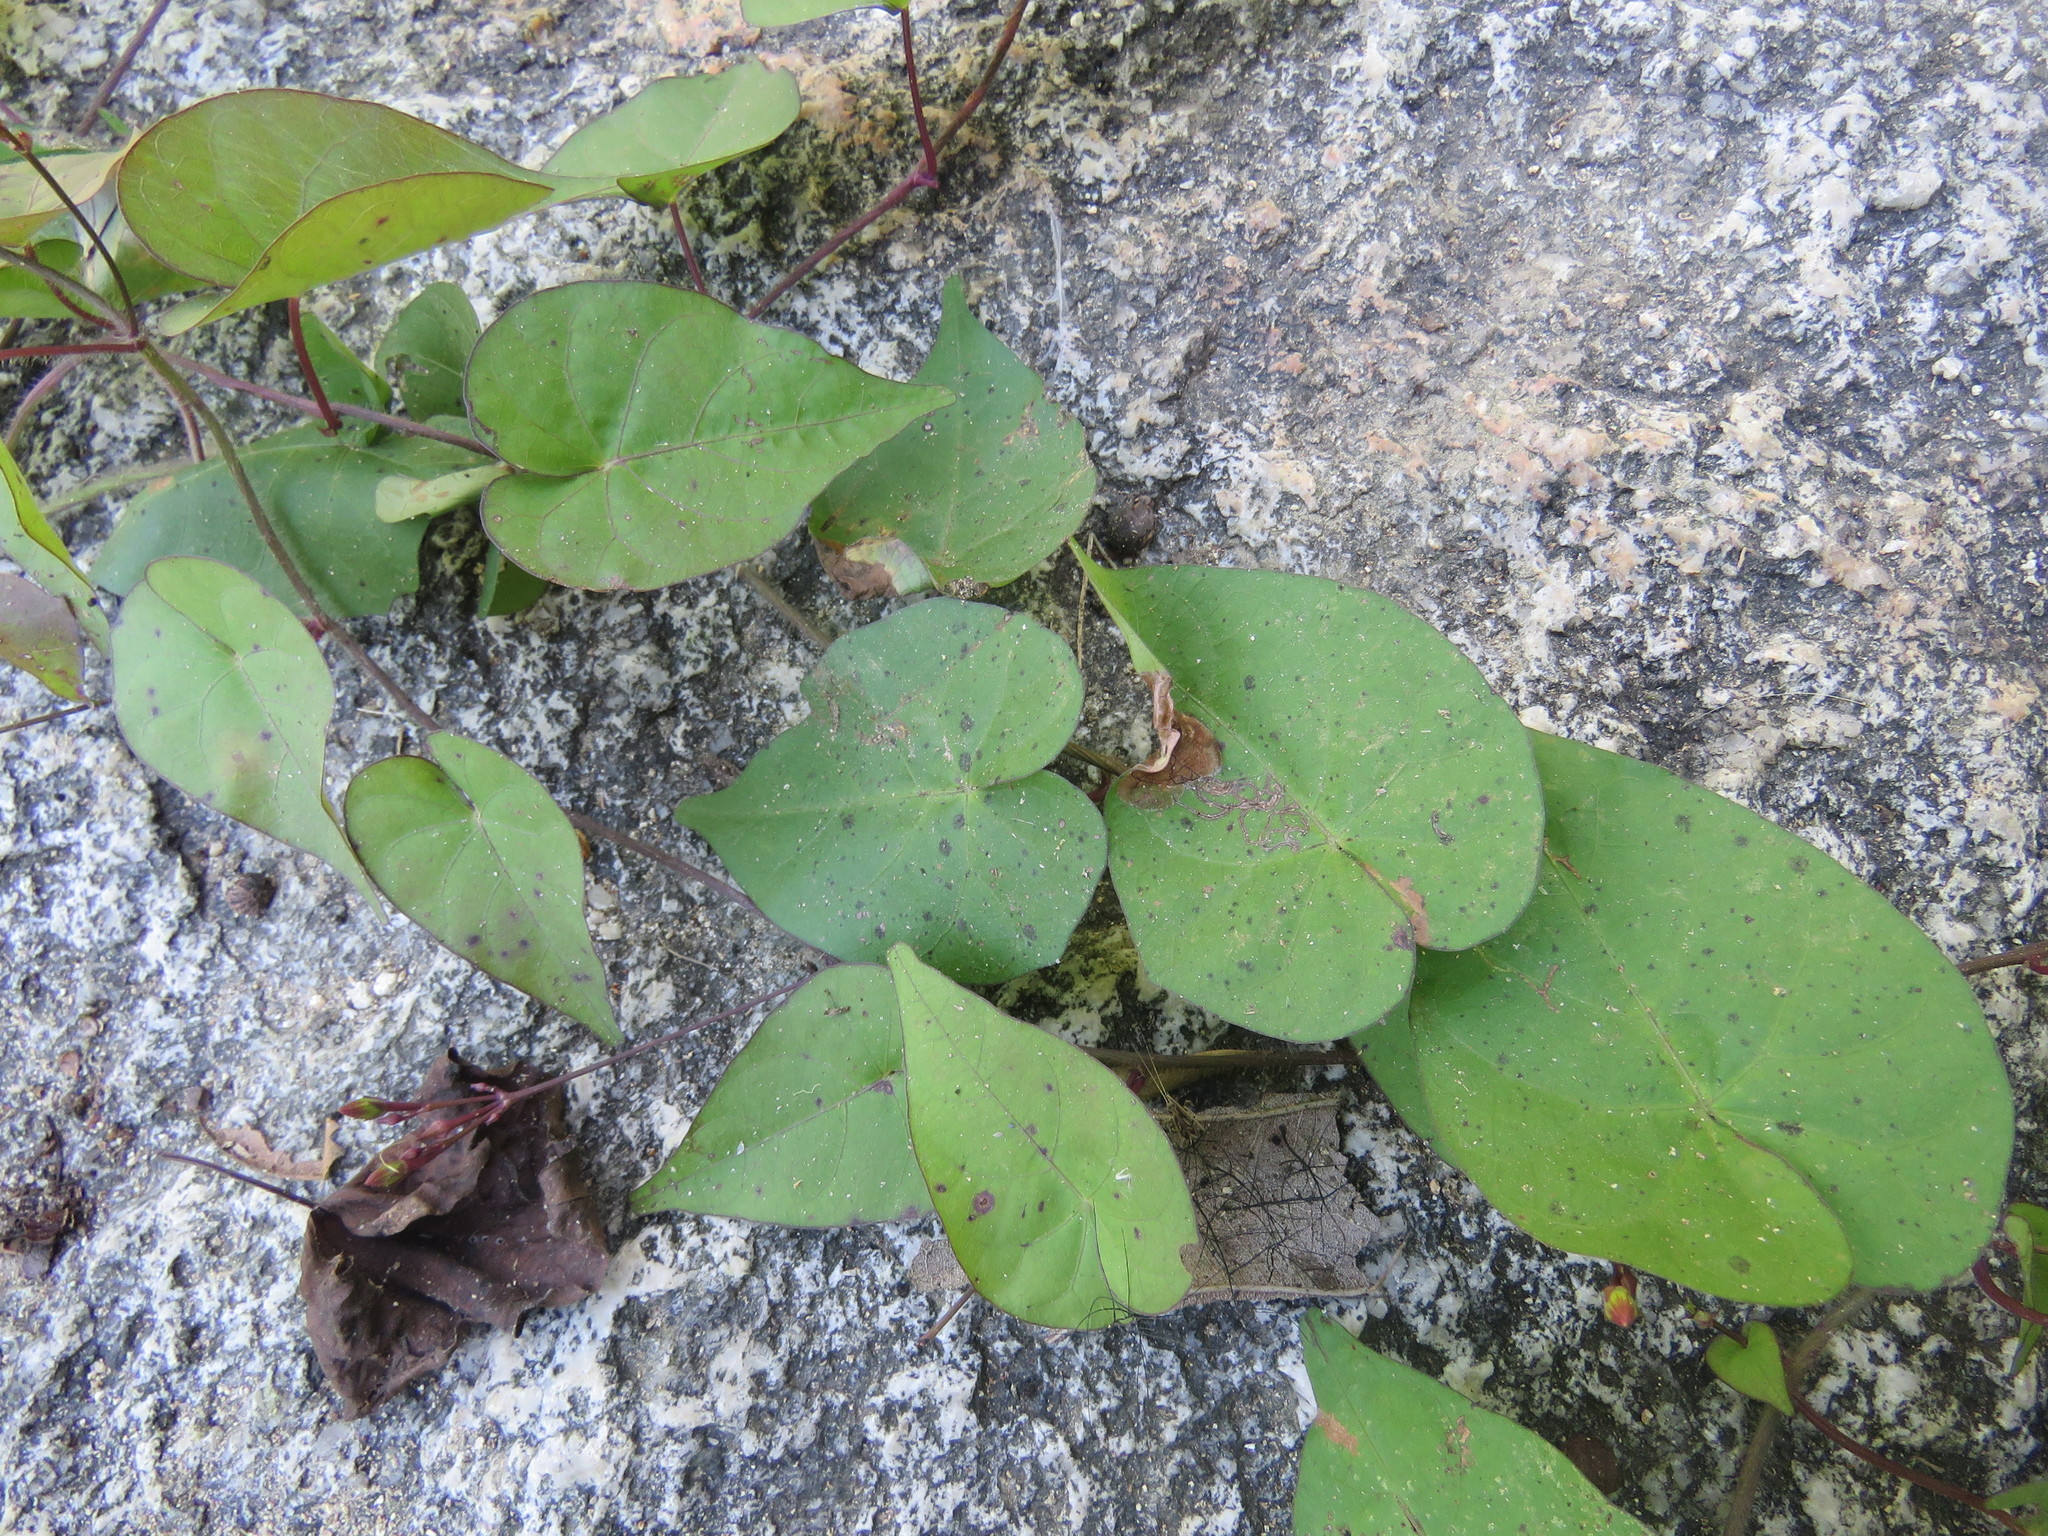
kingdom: Plantae
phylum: Tracheophyta
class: Magnoliopsida
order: Solanales
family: Convolvulaceae
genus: Ipomoea
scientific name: Ipomoea microsepala
